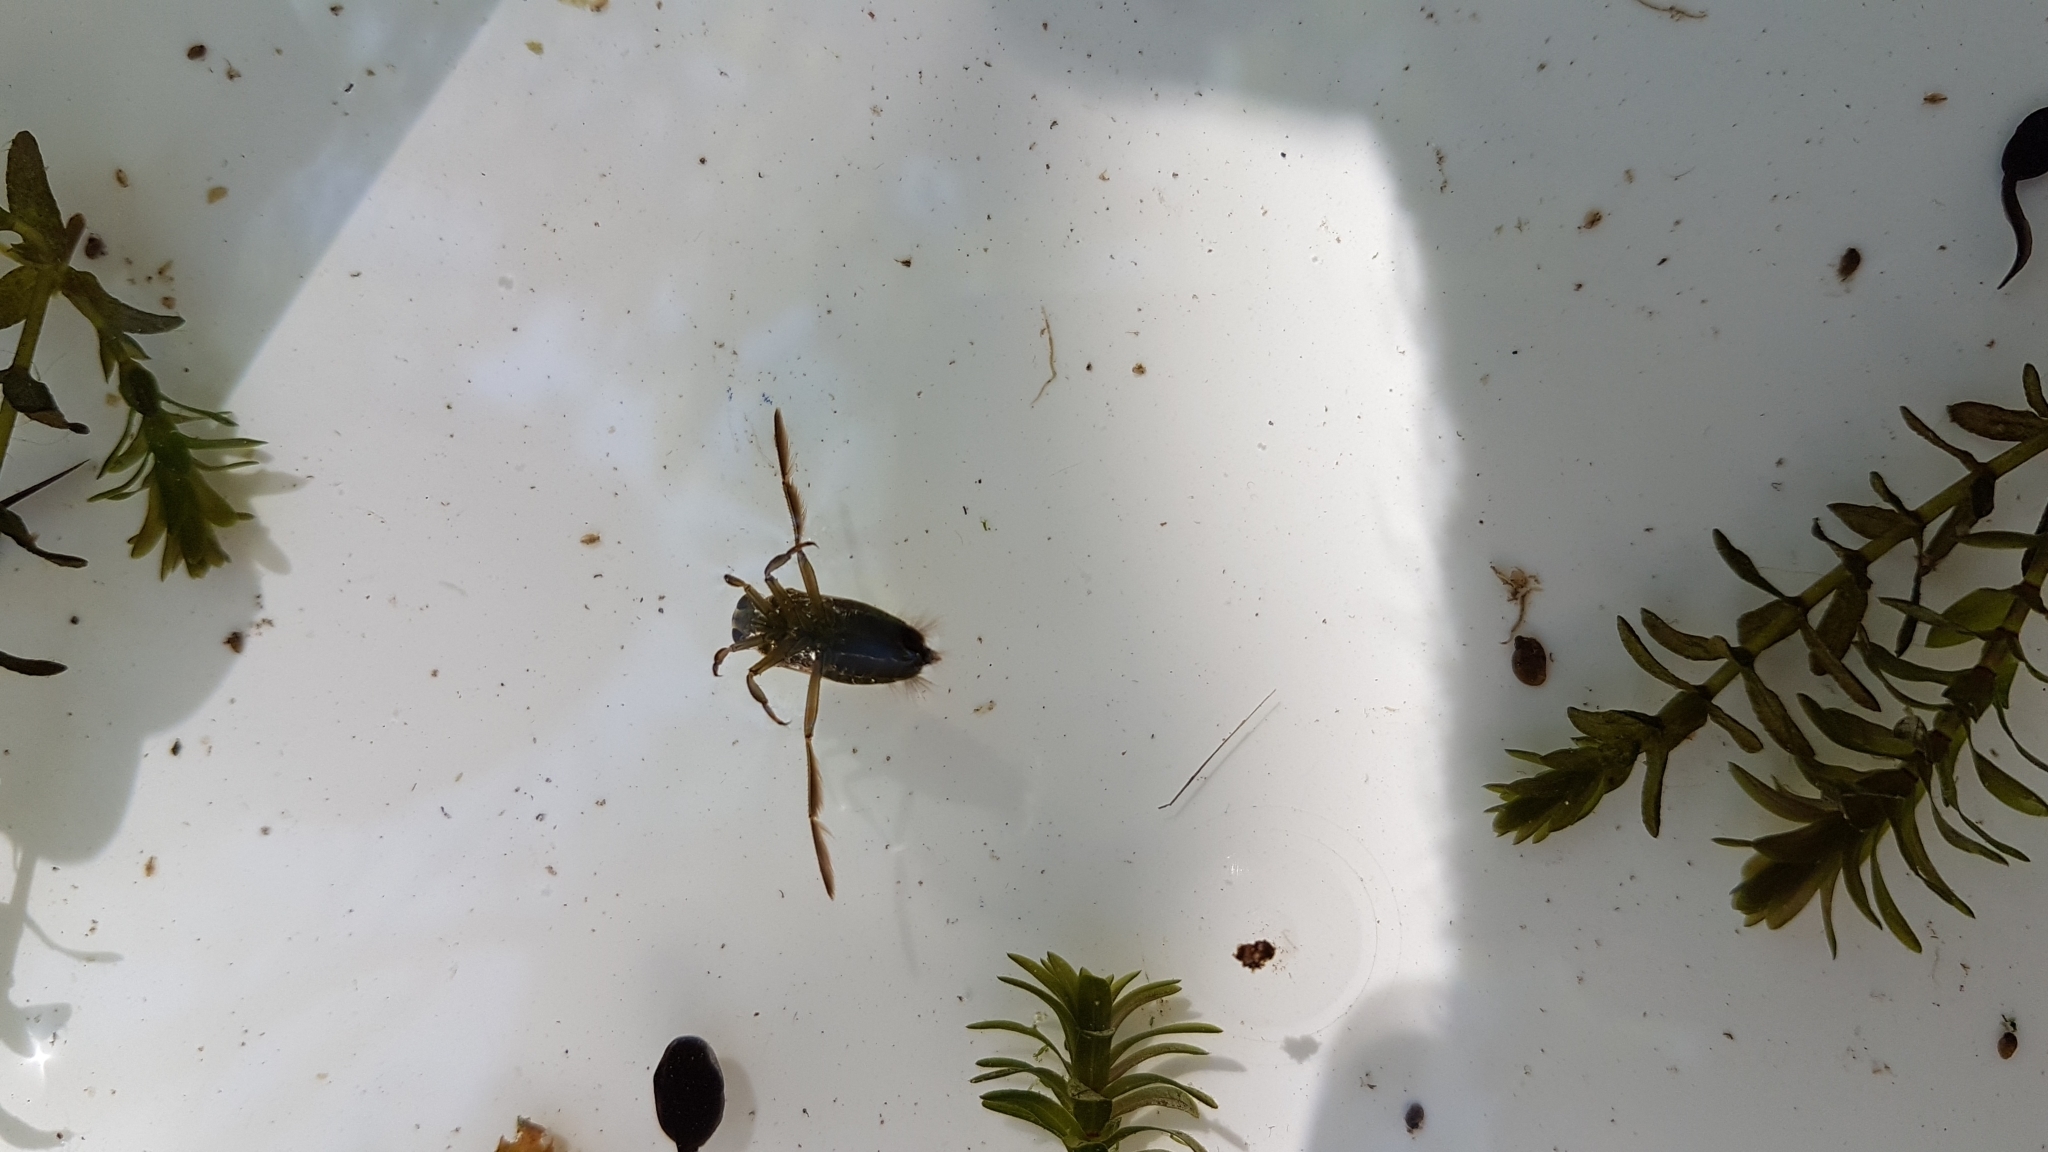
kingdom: Animalia
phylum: Arthropoda
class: Insecta
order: Hemiptera
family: Notonectidae
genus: Notonecta
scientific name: Notonecta
